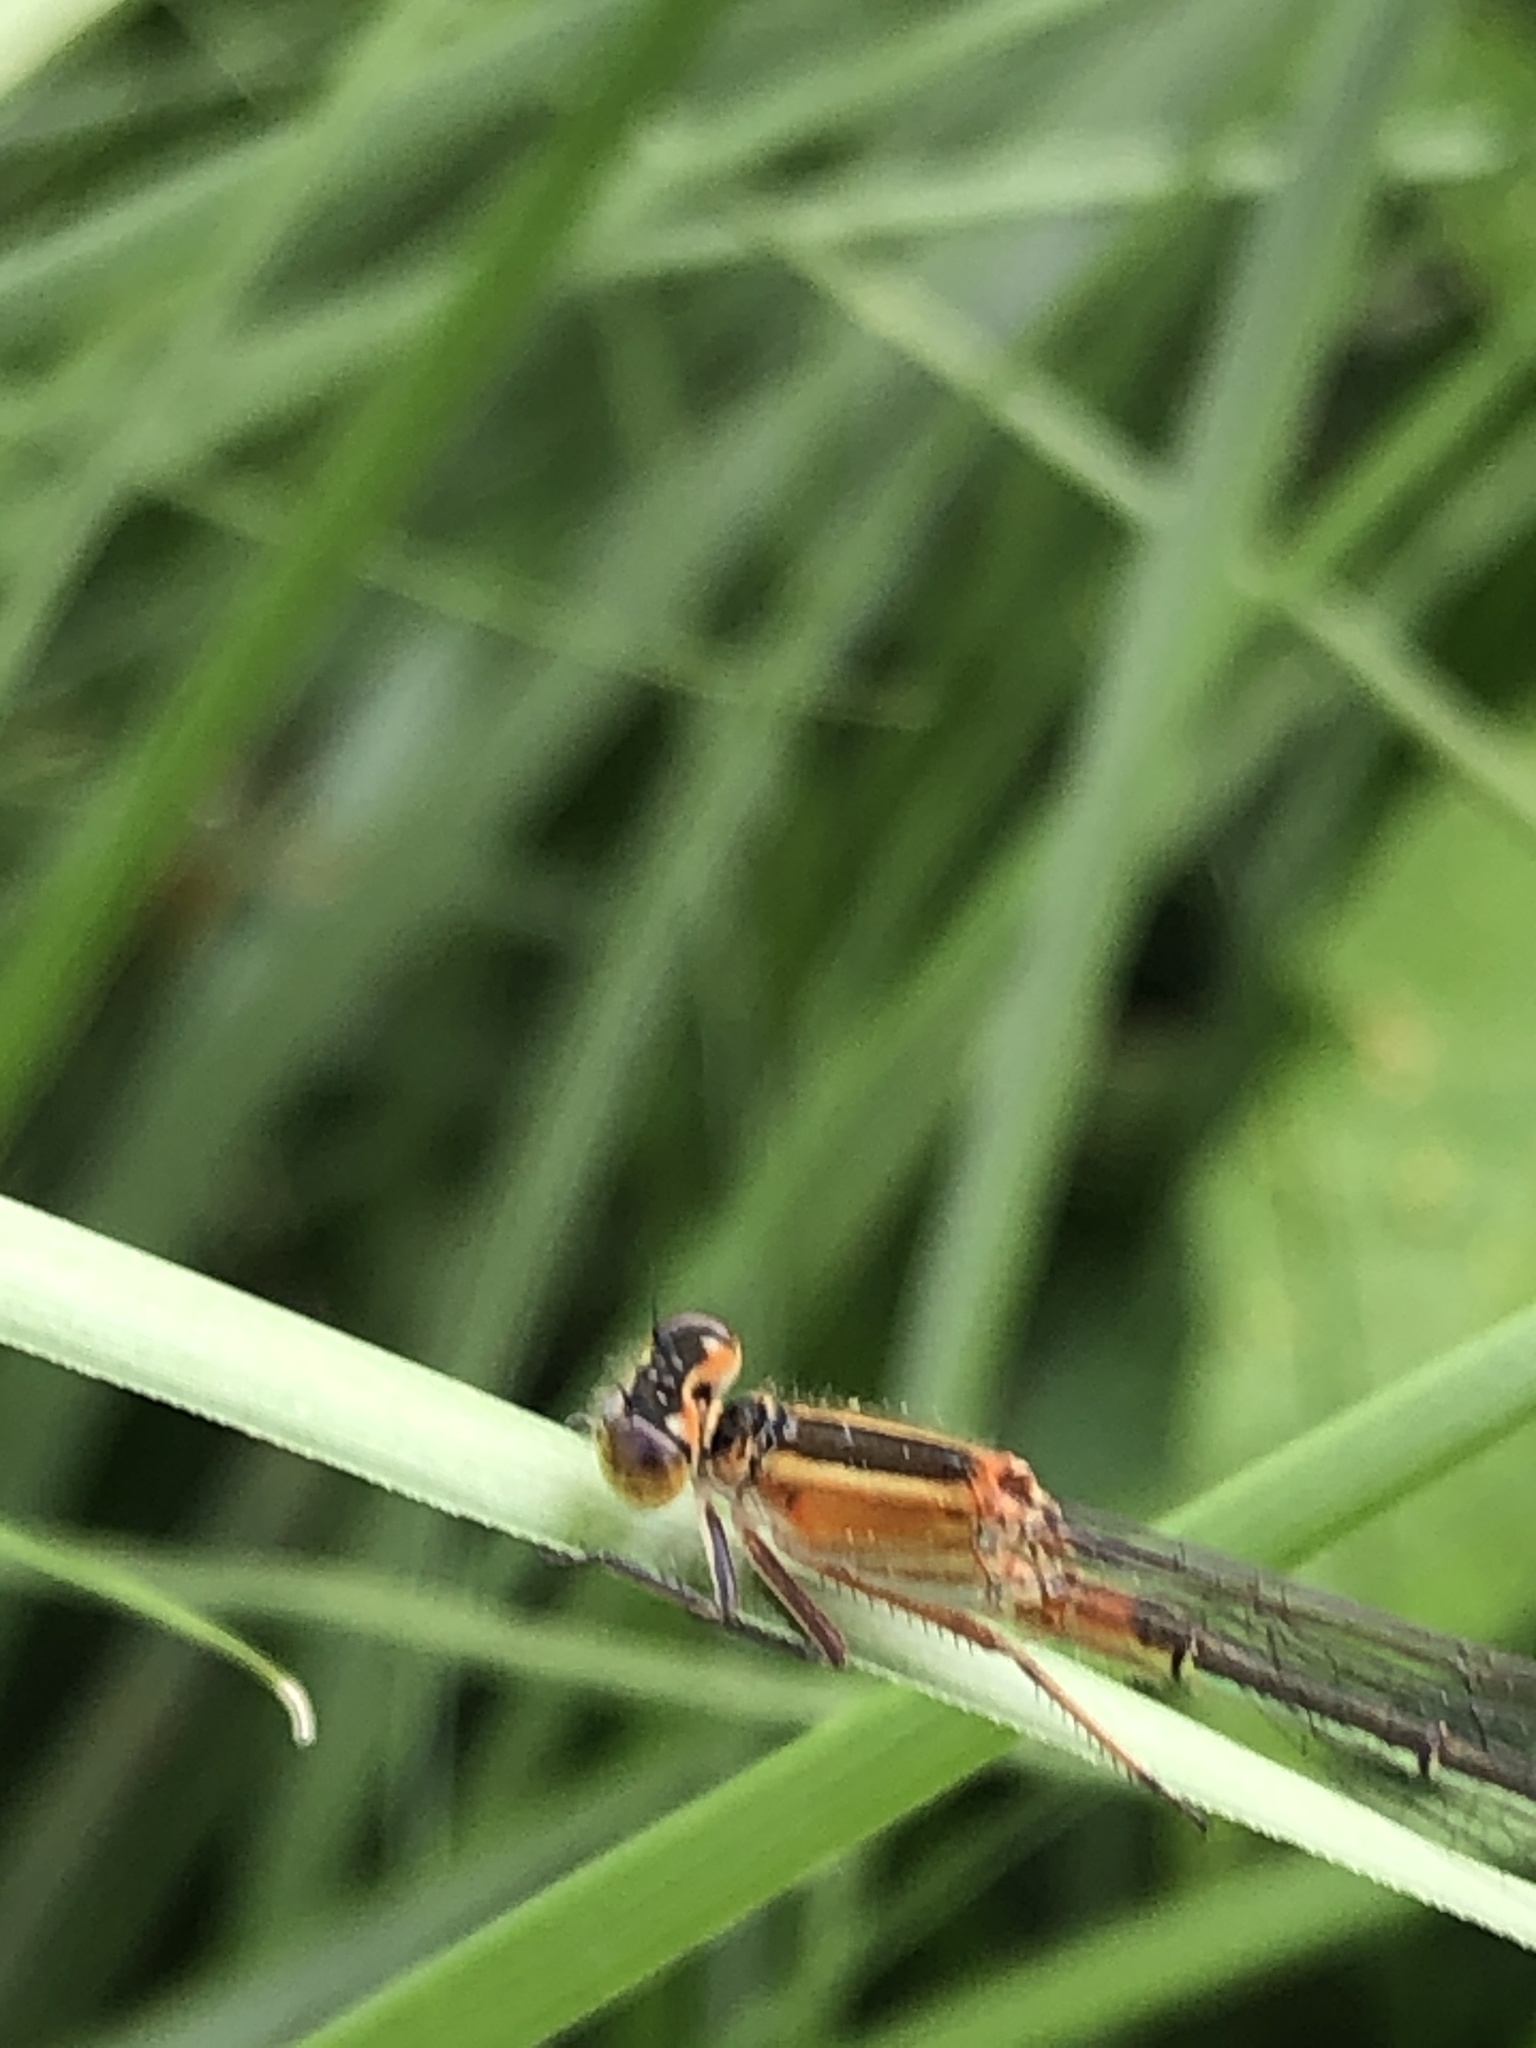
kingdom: Animalia
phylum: Arthropoda
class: Insecta
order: Odonata
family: Coenagrionidae
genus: Ischnura
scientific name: Ischnura ramburii
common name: Rambur's forktail
